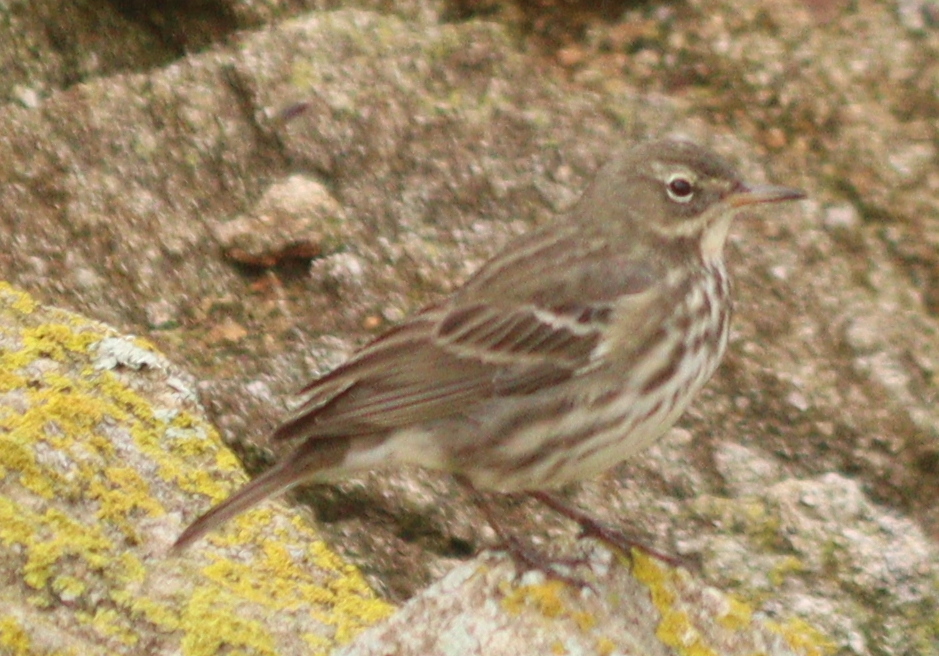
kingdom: Animalia
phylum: Chordata
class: Aves
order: Passeriformes
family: Motacillidae
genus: Anthus
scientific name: Anthus petrosus
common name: Eurasian rock pipit
